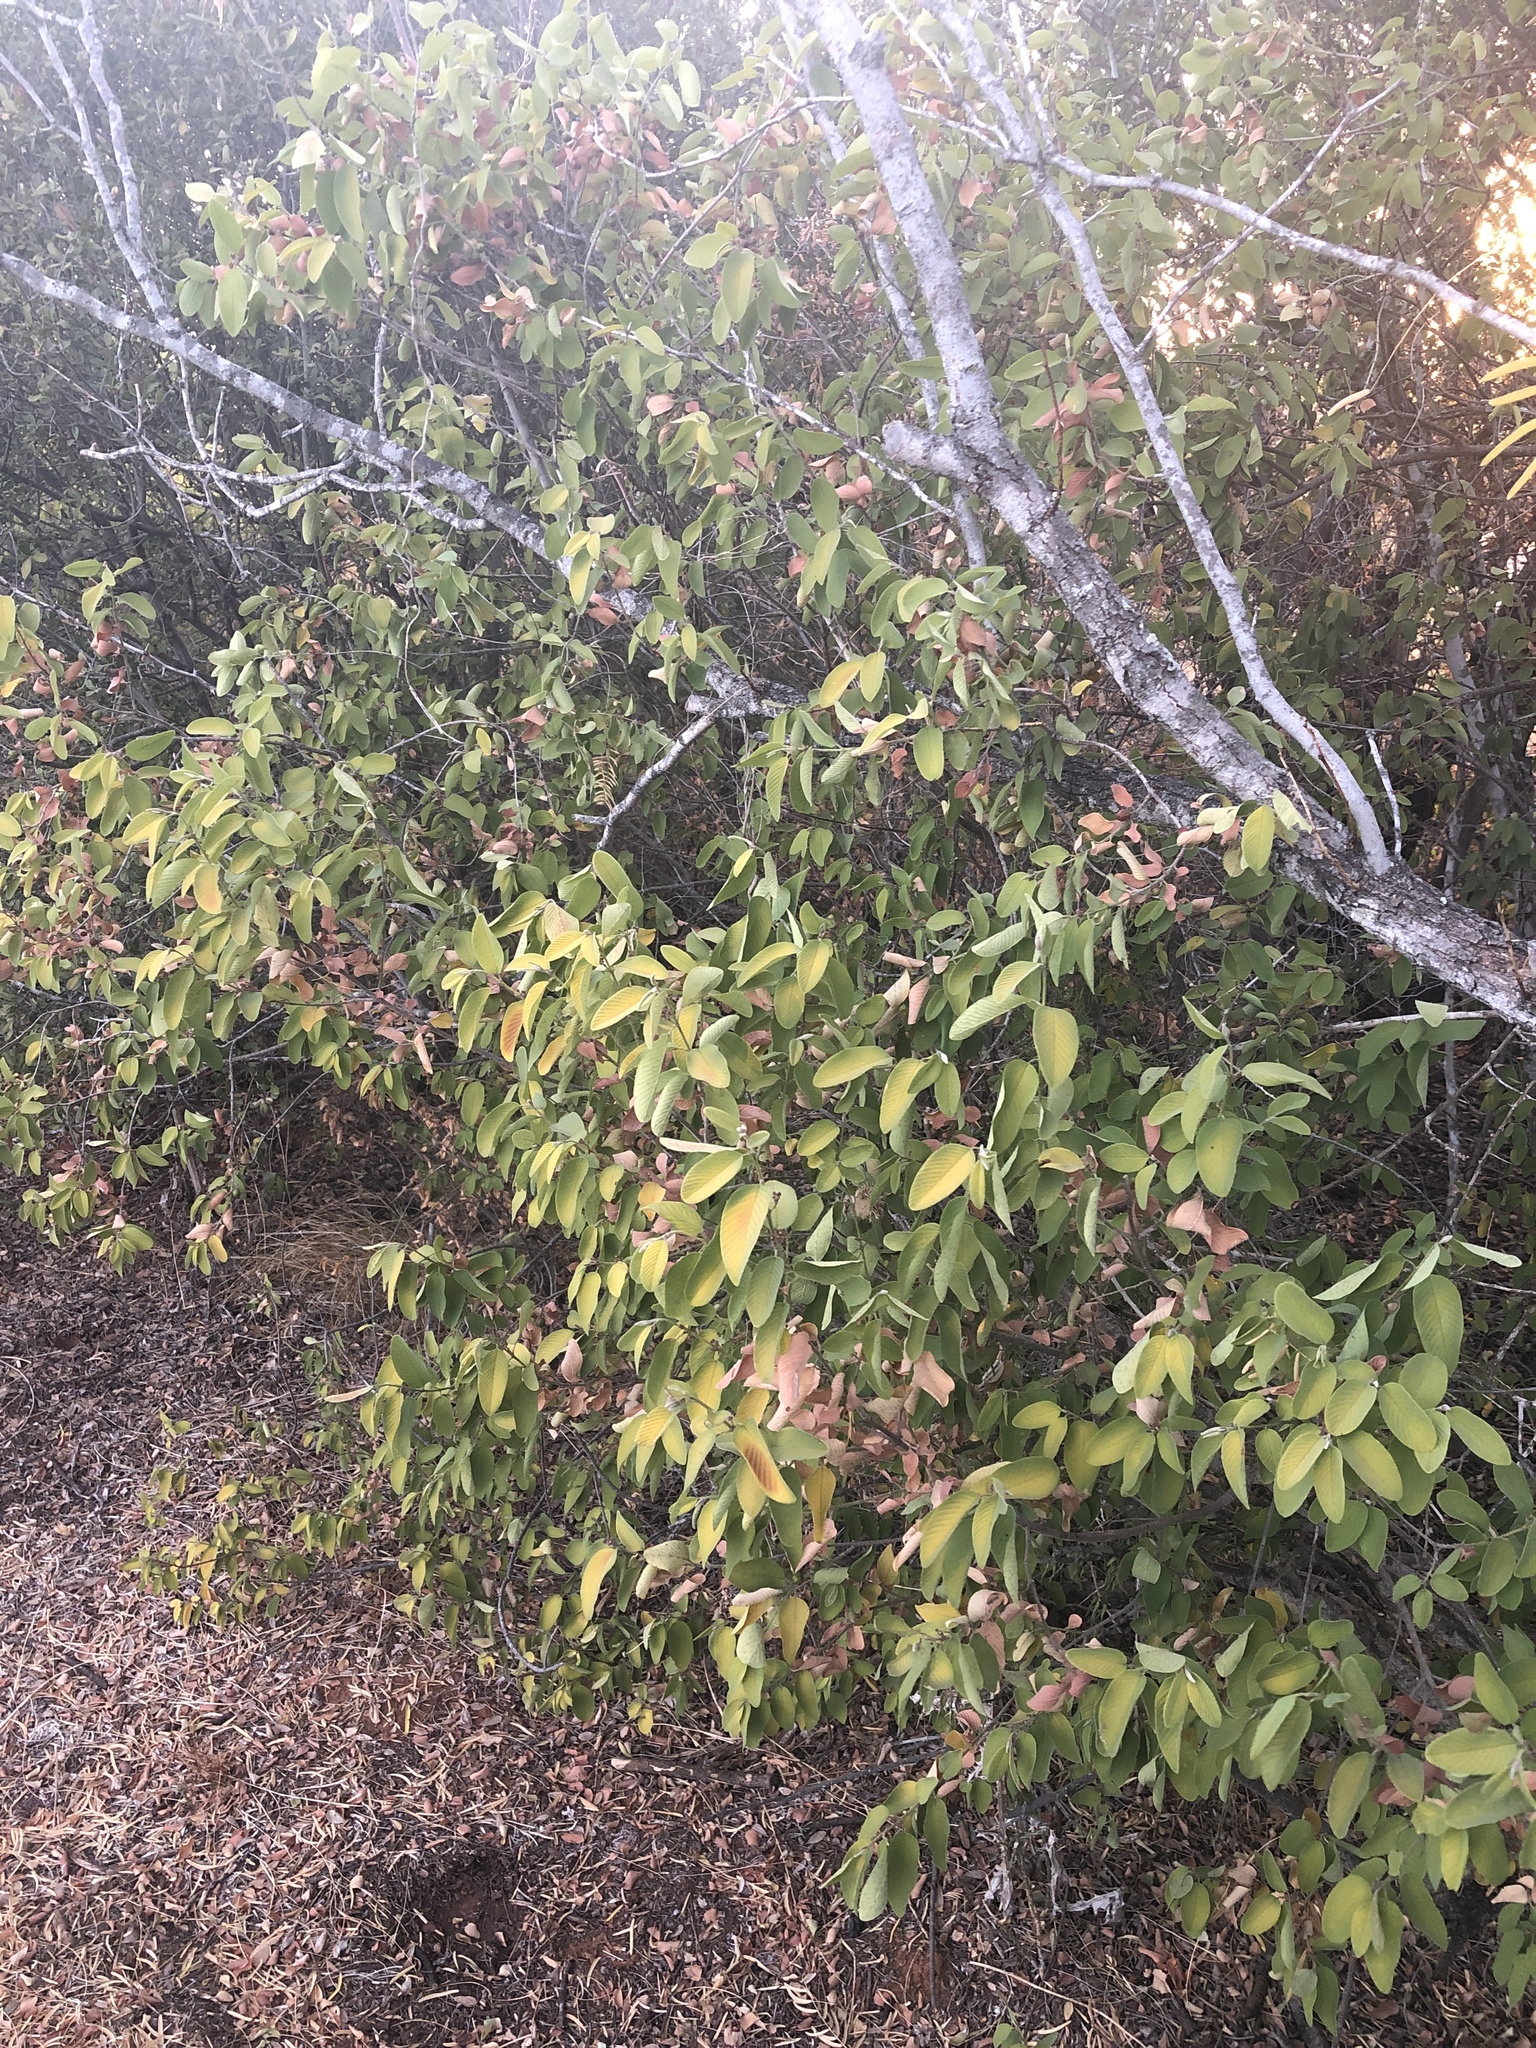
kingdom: Plantae
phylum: Tracheophyta
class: Magnoliopsida
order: Rosales
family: Rhamnaceae
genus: Karwinskia
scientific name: Karwinskia humboldtiana
